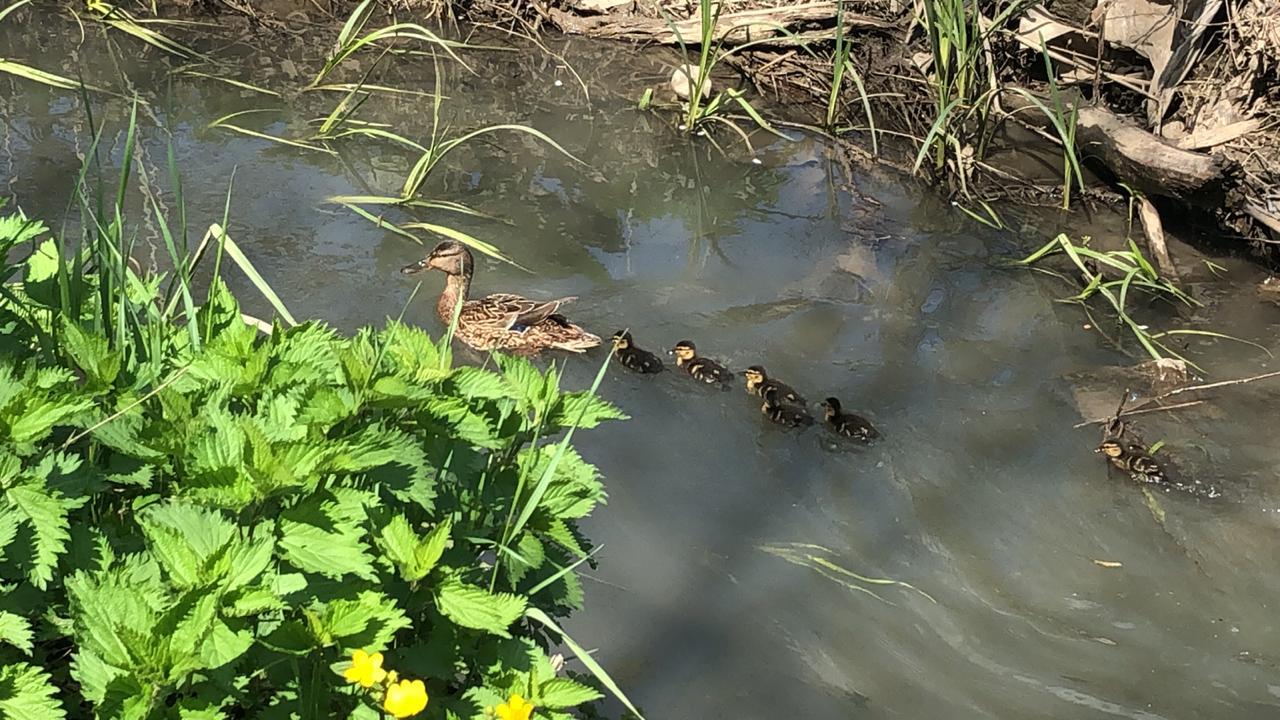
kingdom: Animalia
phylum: Chordata
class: Aves
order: Anseriformes
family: Anatidae
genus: Anas
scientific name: Anas platyrhynchos
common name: Mallard
